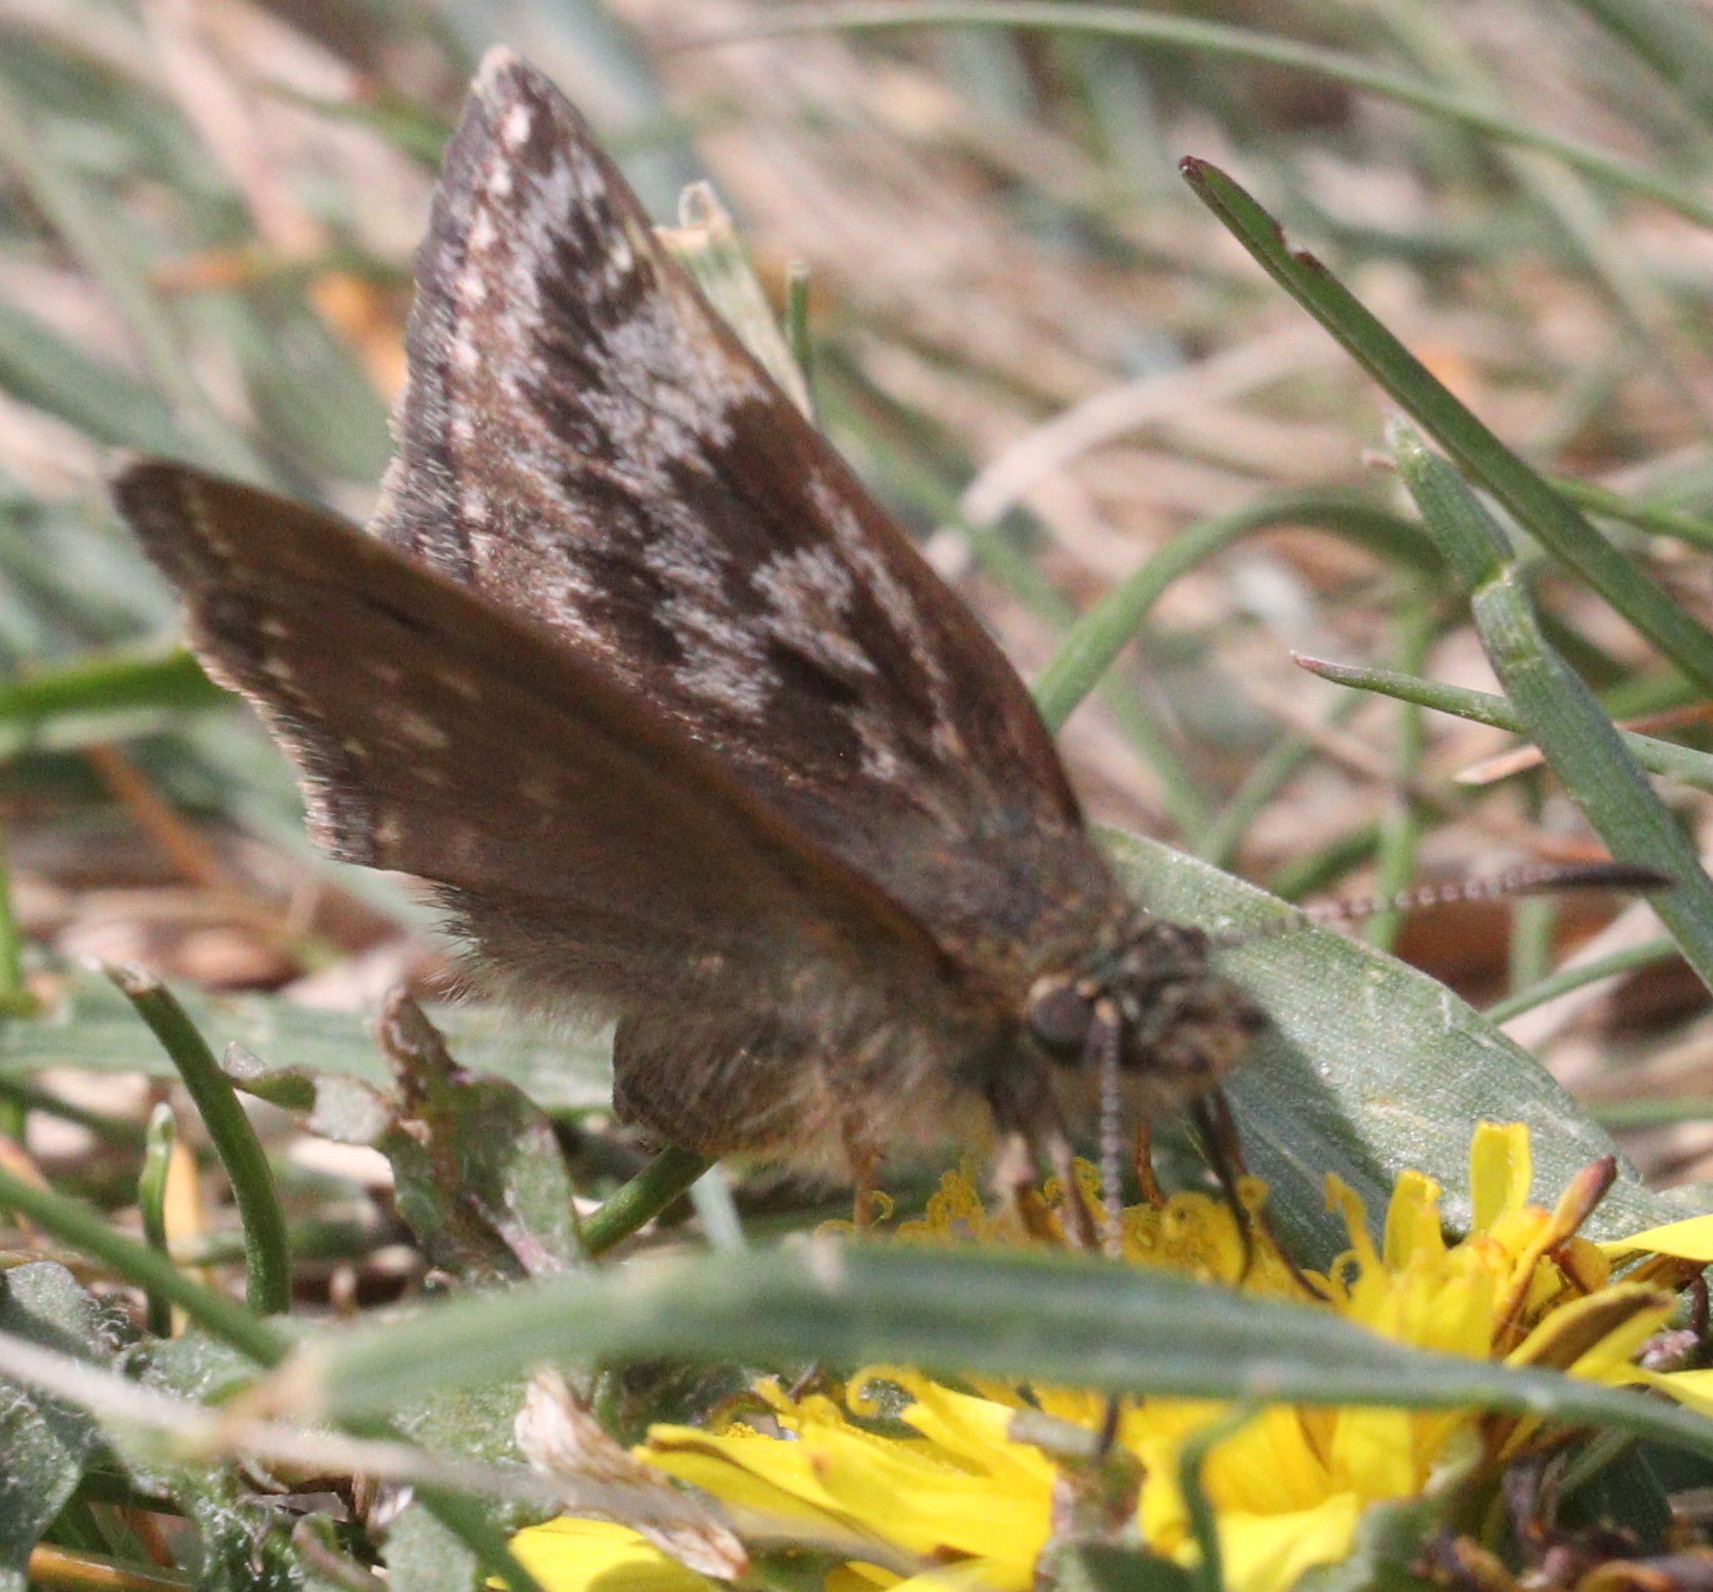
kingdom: Animalia
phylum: Arthropoda
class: Insecta
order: Lepidoptera
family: Hesperiidae
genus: Erynnis
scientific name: Erynnis tages
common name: Dingy skipper
